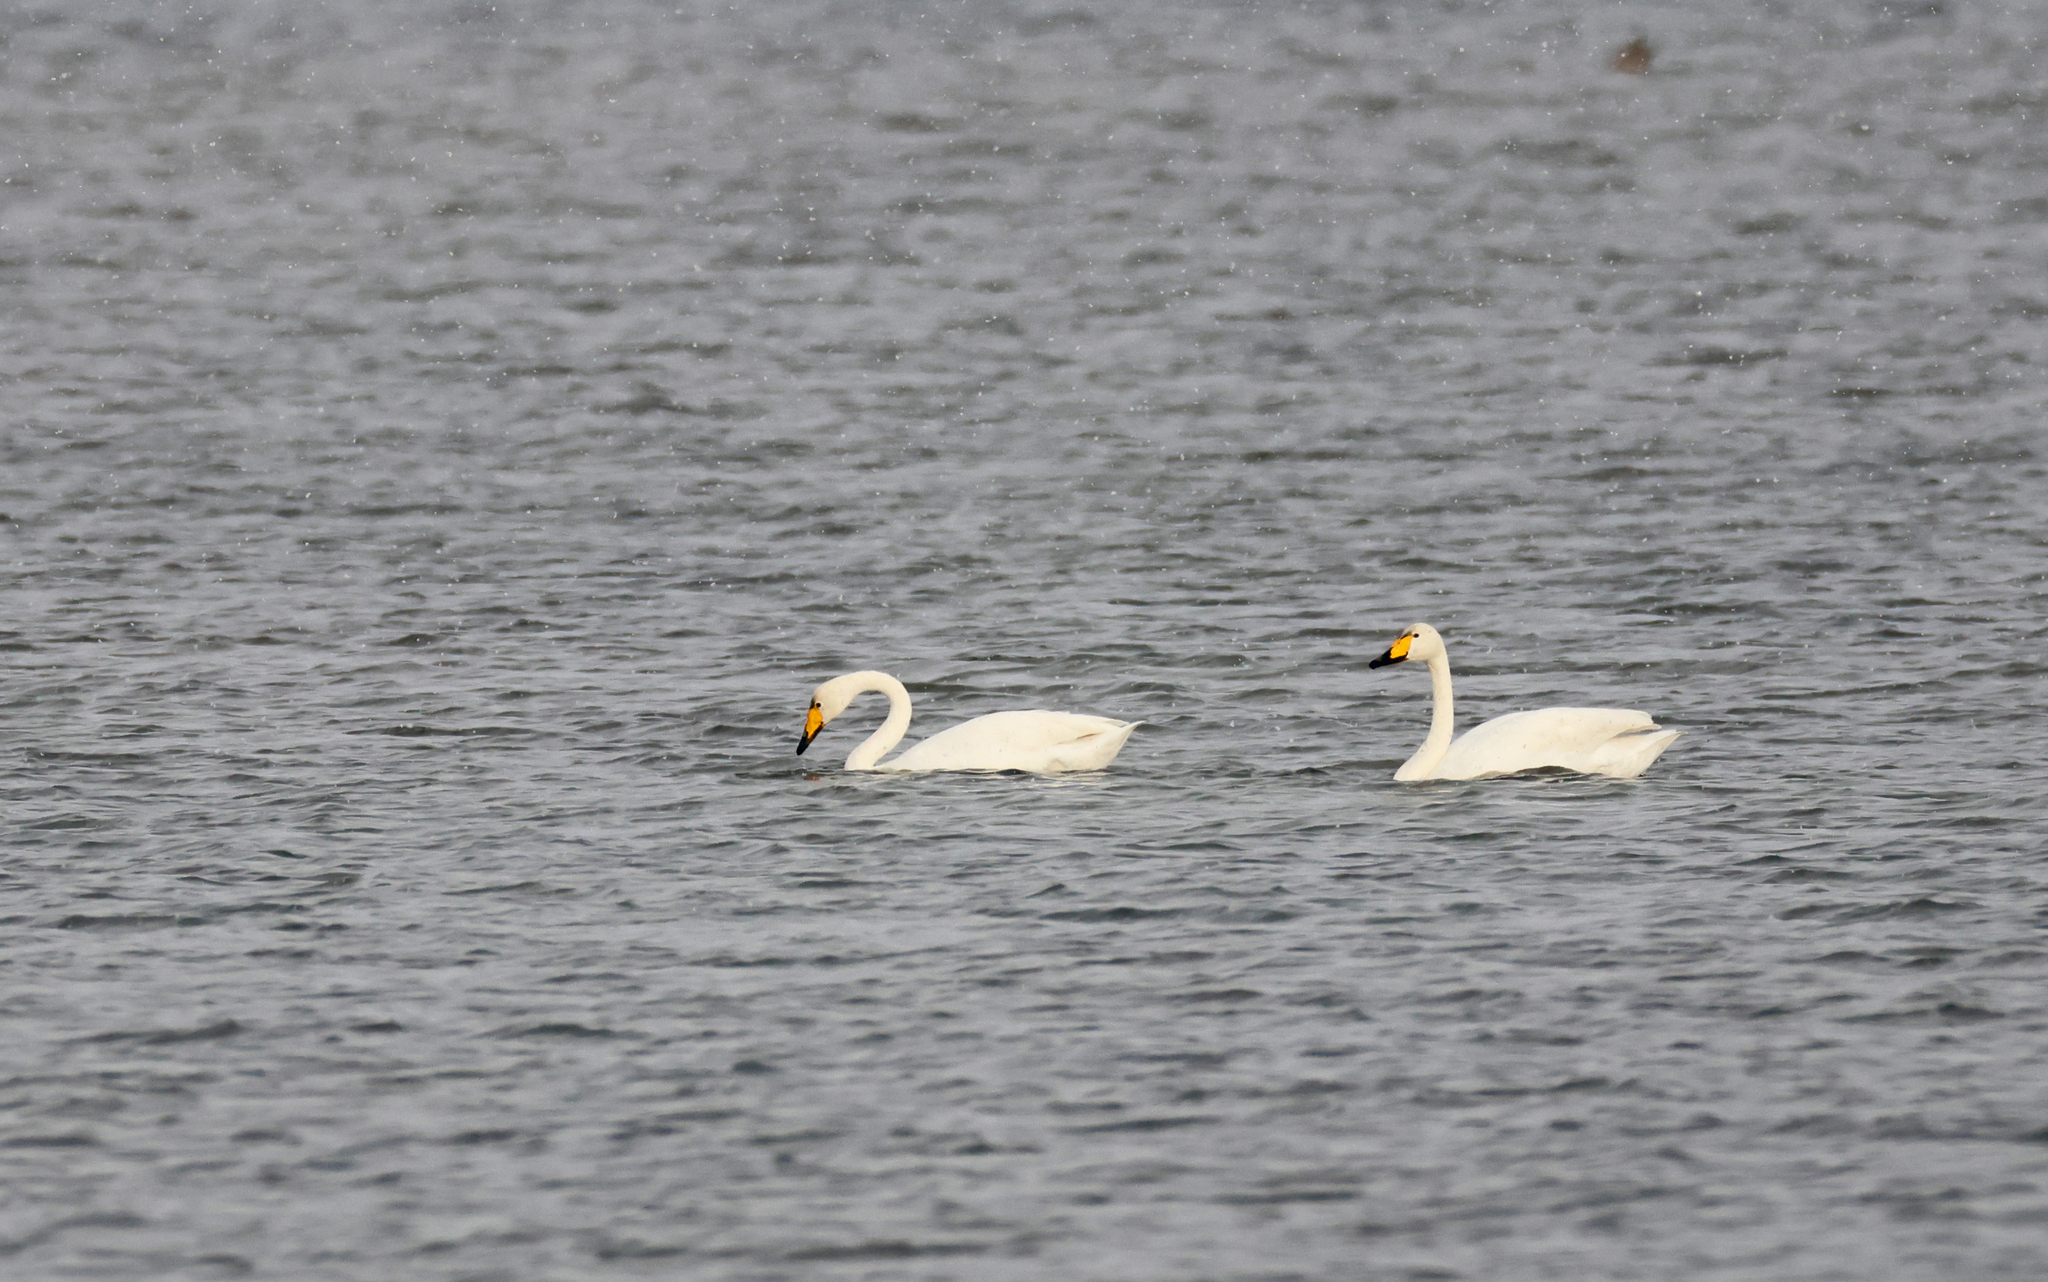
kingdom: Animalia
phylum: Chordata
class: Aves
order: Anseriformes
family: Anatidae
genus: Cygnus
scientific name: Cygnus cygnus
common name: Whooper swan
